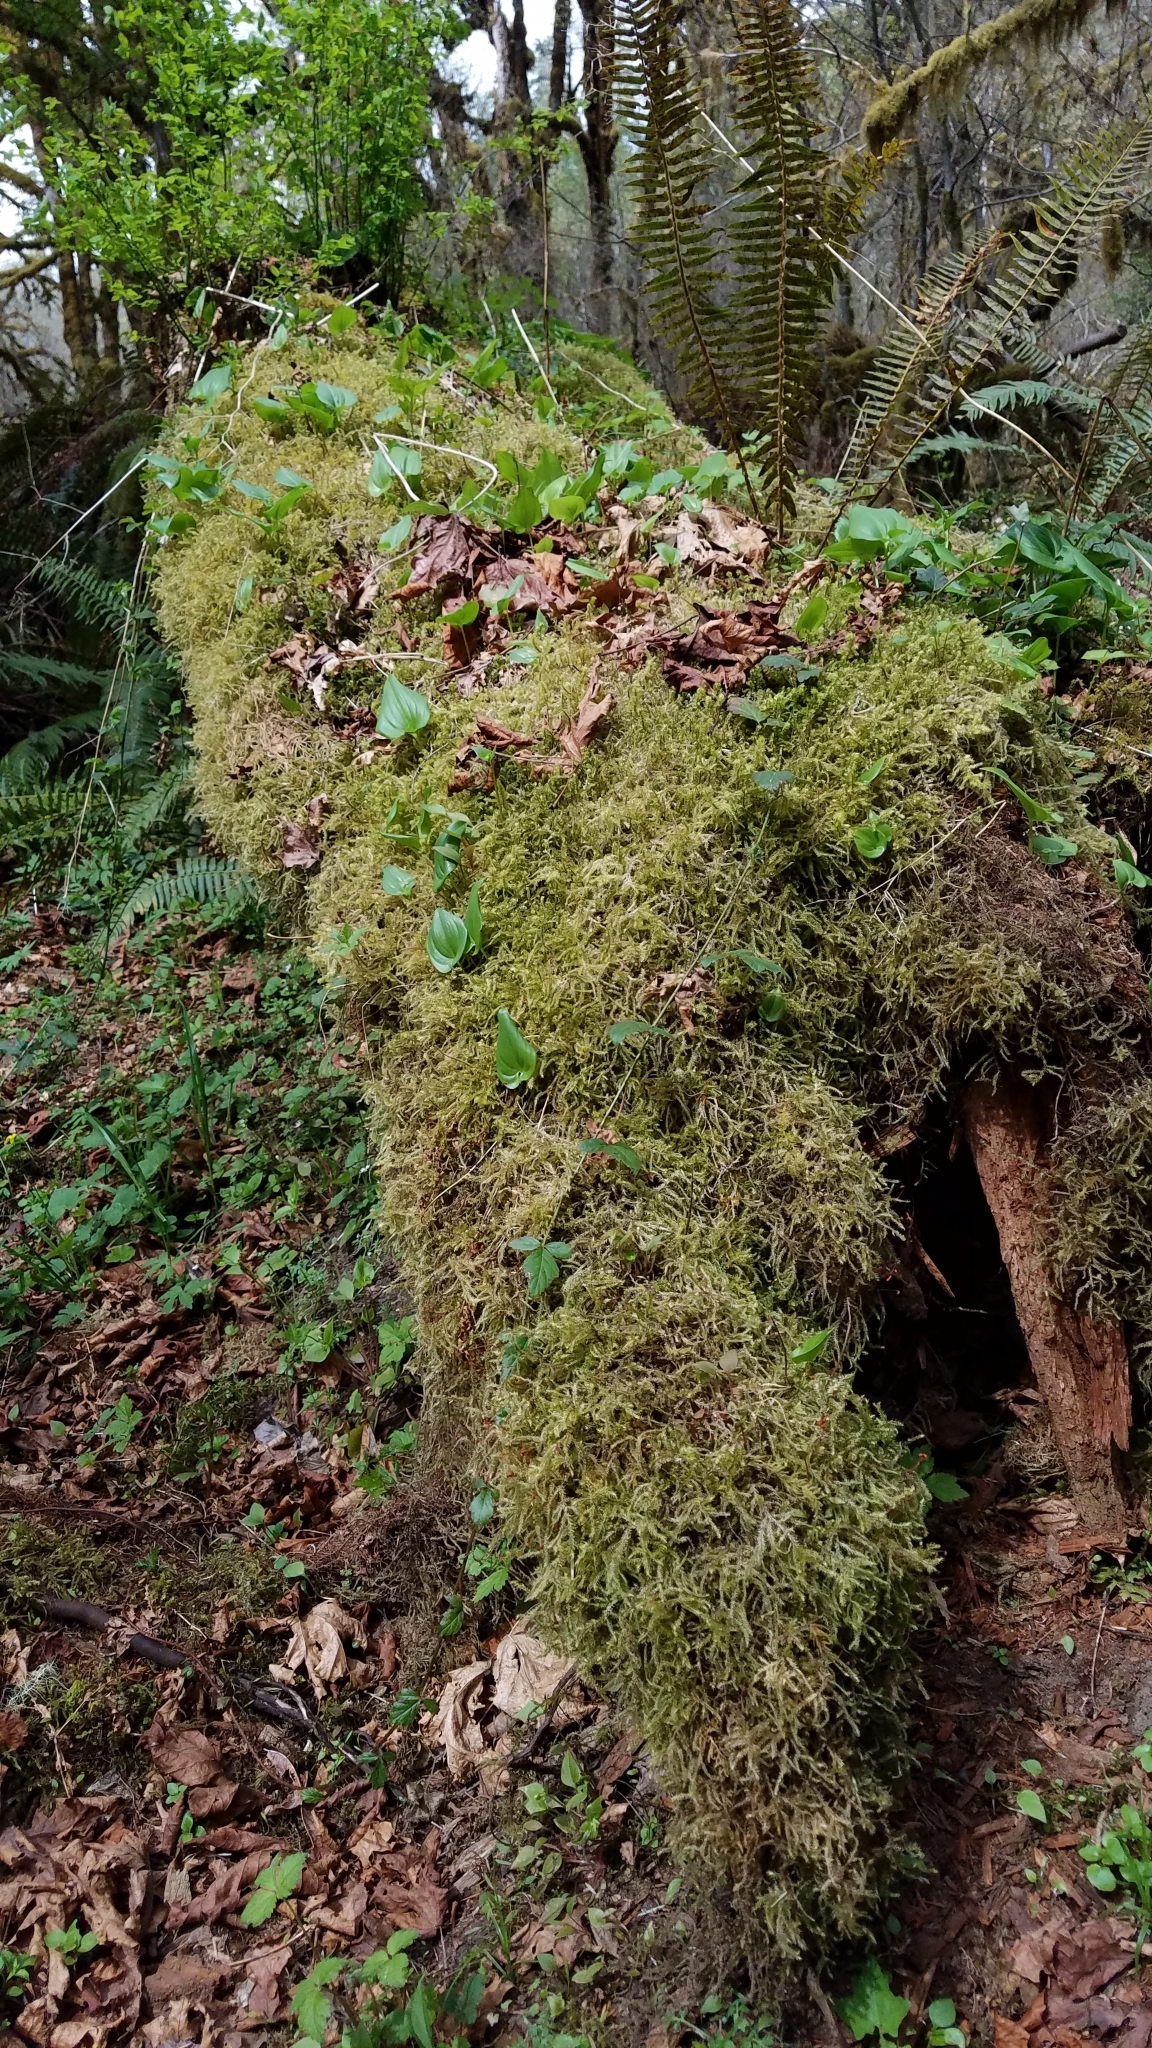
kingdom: Plantae
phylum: Tracheophyta
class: Liliopsida
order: Asparagales
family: Asparagaceae
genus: Maianthemum
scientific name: Maianthemum dilatatum
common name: False lily-of-the-valley
